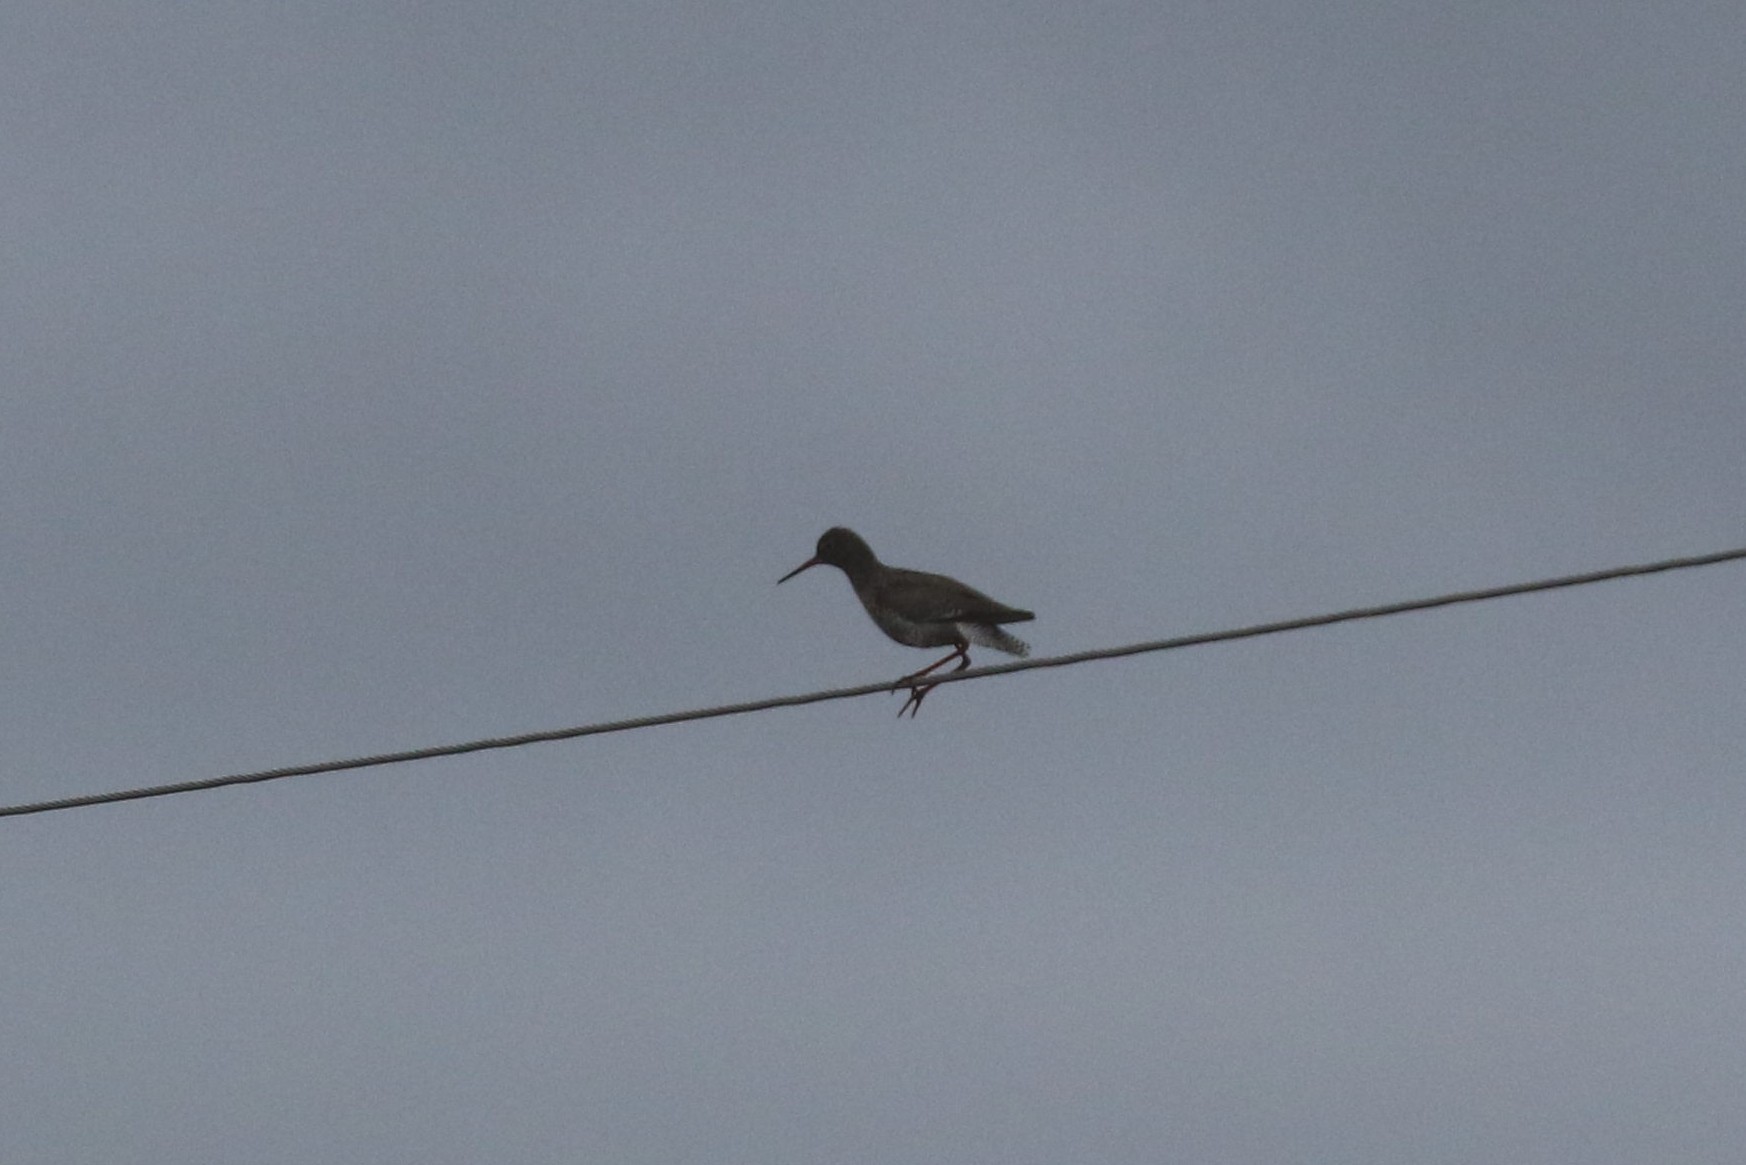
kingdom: Animalia
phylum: Chordata
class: Aves
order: Charadriiformes
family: Scolopacidae
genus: Tringa
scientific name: Tringa totanus
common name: Common redshank
